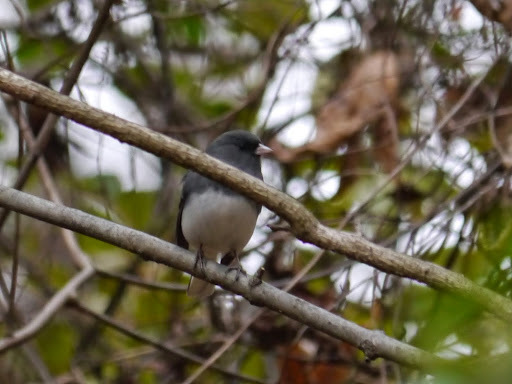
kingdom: Animalia
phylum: Chordata
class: Aves
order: Passeriformes
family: Passerellidae
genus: Junco
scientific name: Junco hyemalis
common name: Dark-eyed junco
